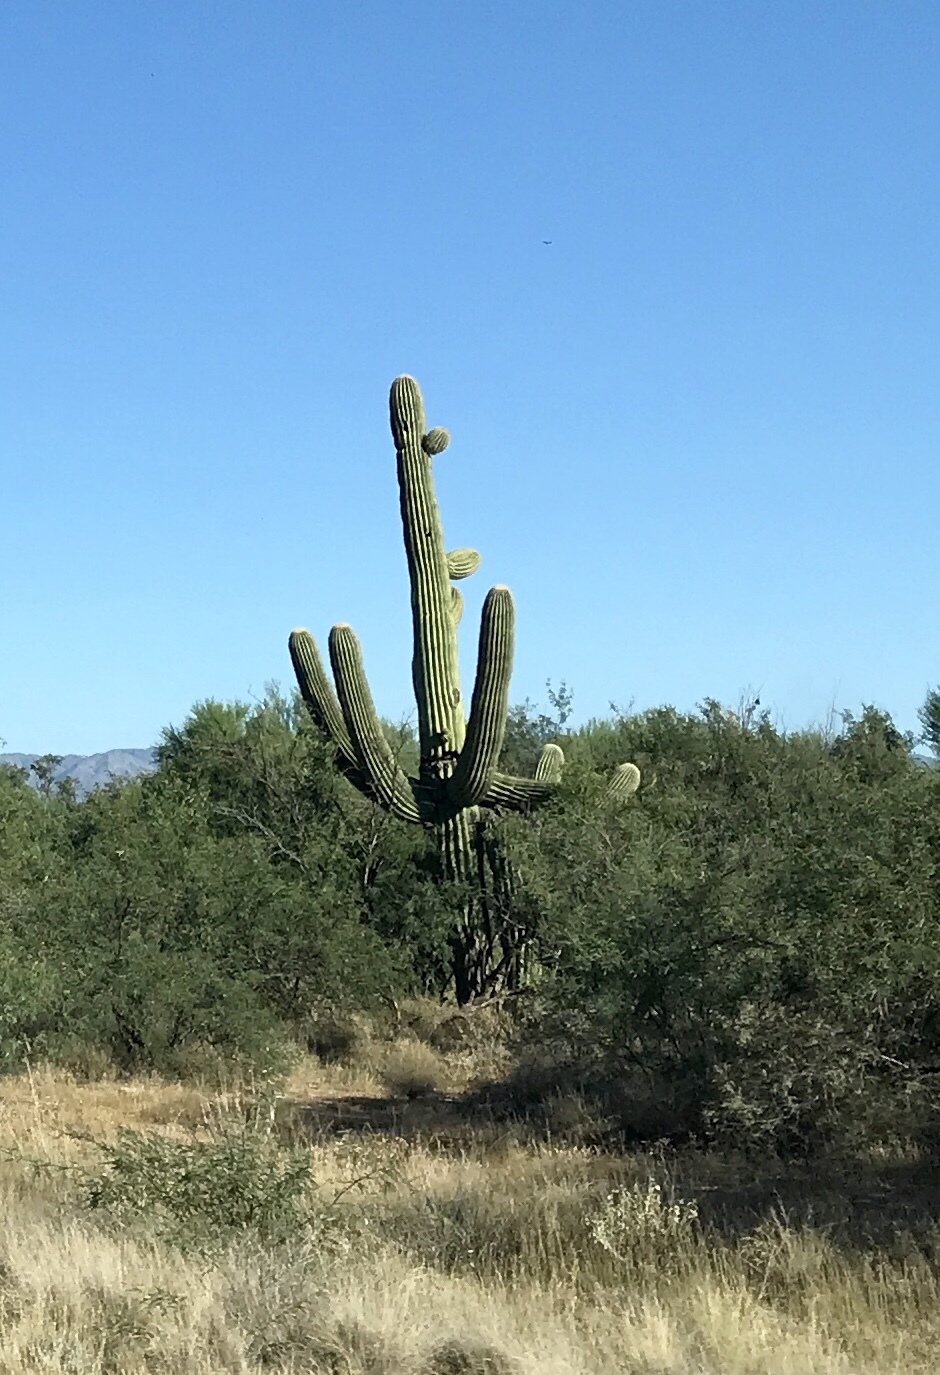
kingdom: Plantae
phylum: Tracheophyta
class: Magnoliopsida
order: Caryophyllales
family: Cactaceae
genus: Carnegiea
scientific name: Carnegiea gigantea
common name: Saguaro
